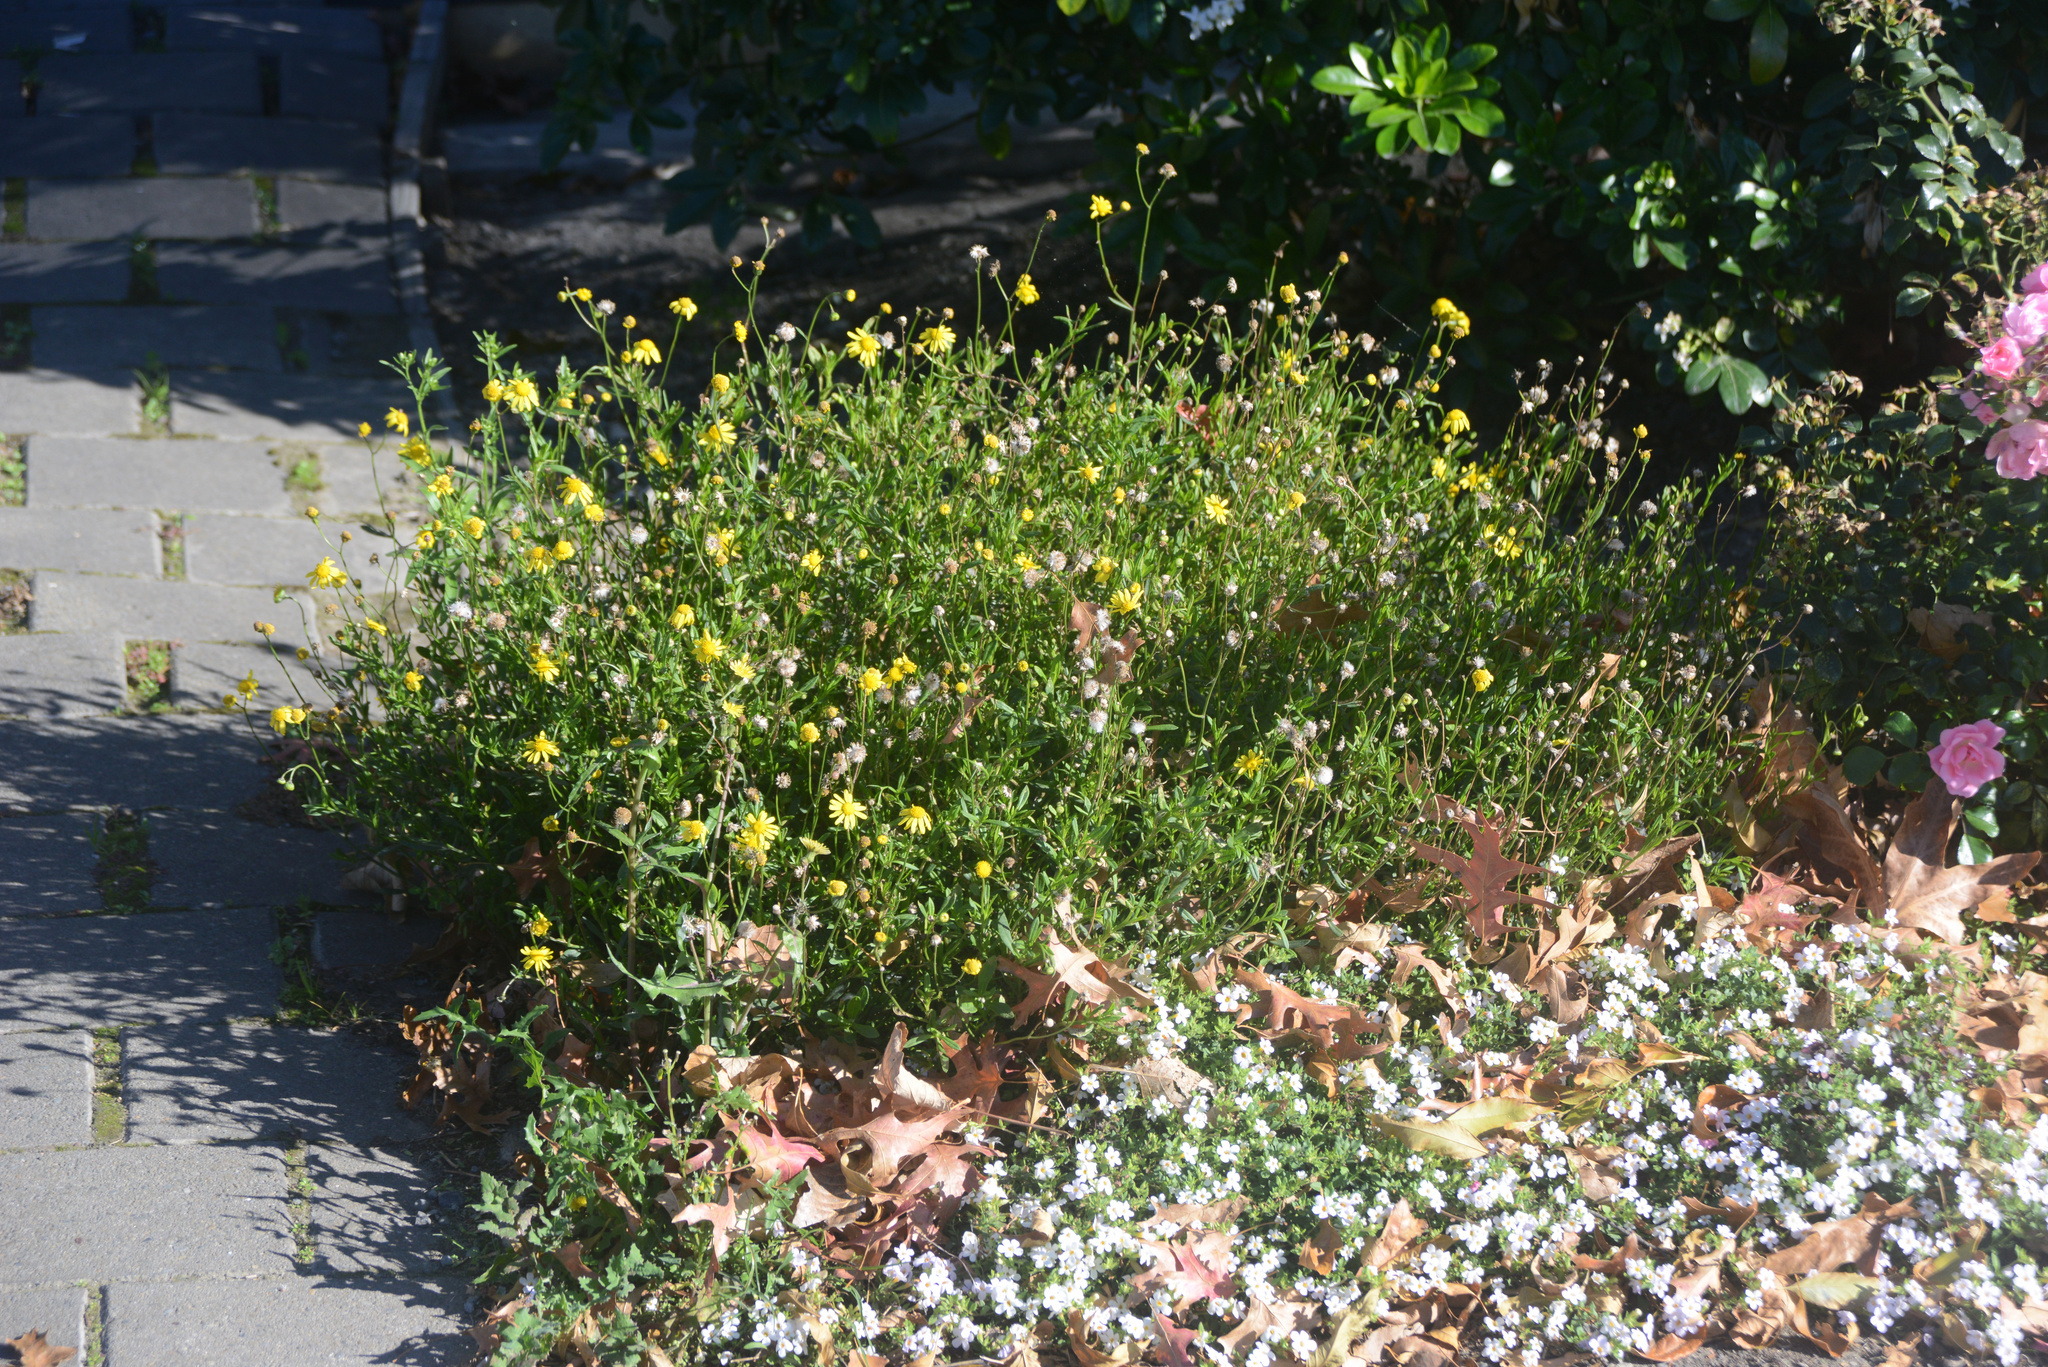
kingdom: Plantae
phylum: Tracheophyta
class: Magnoliopsida
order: Asterales
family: Asteraceae
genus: Senecio
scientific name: Senecio skirrhodon
